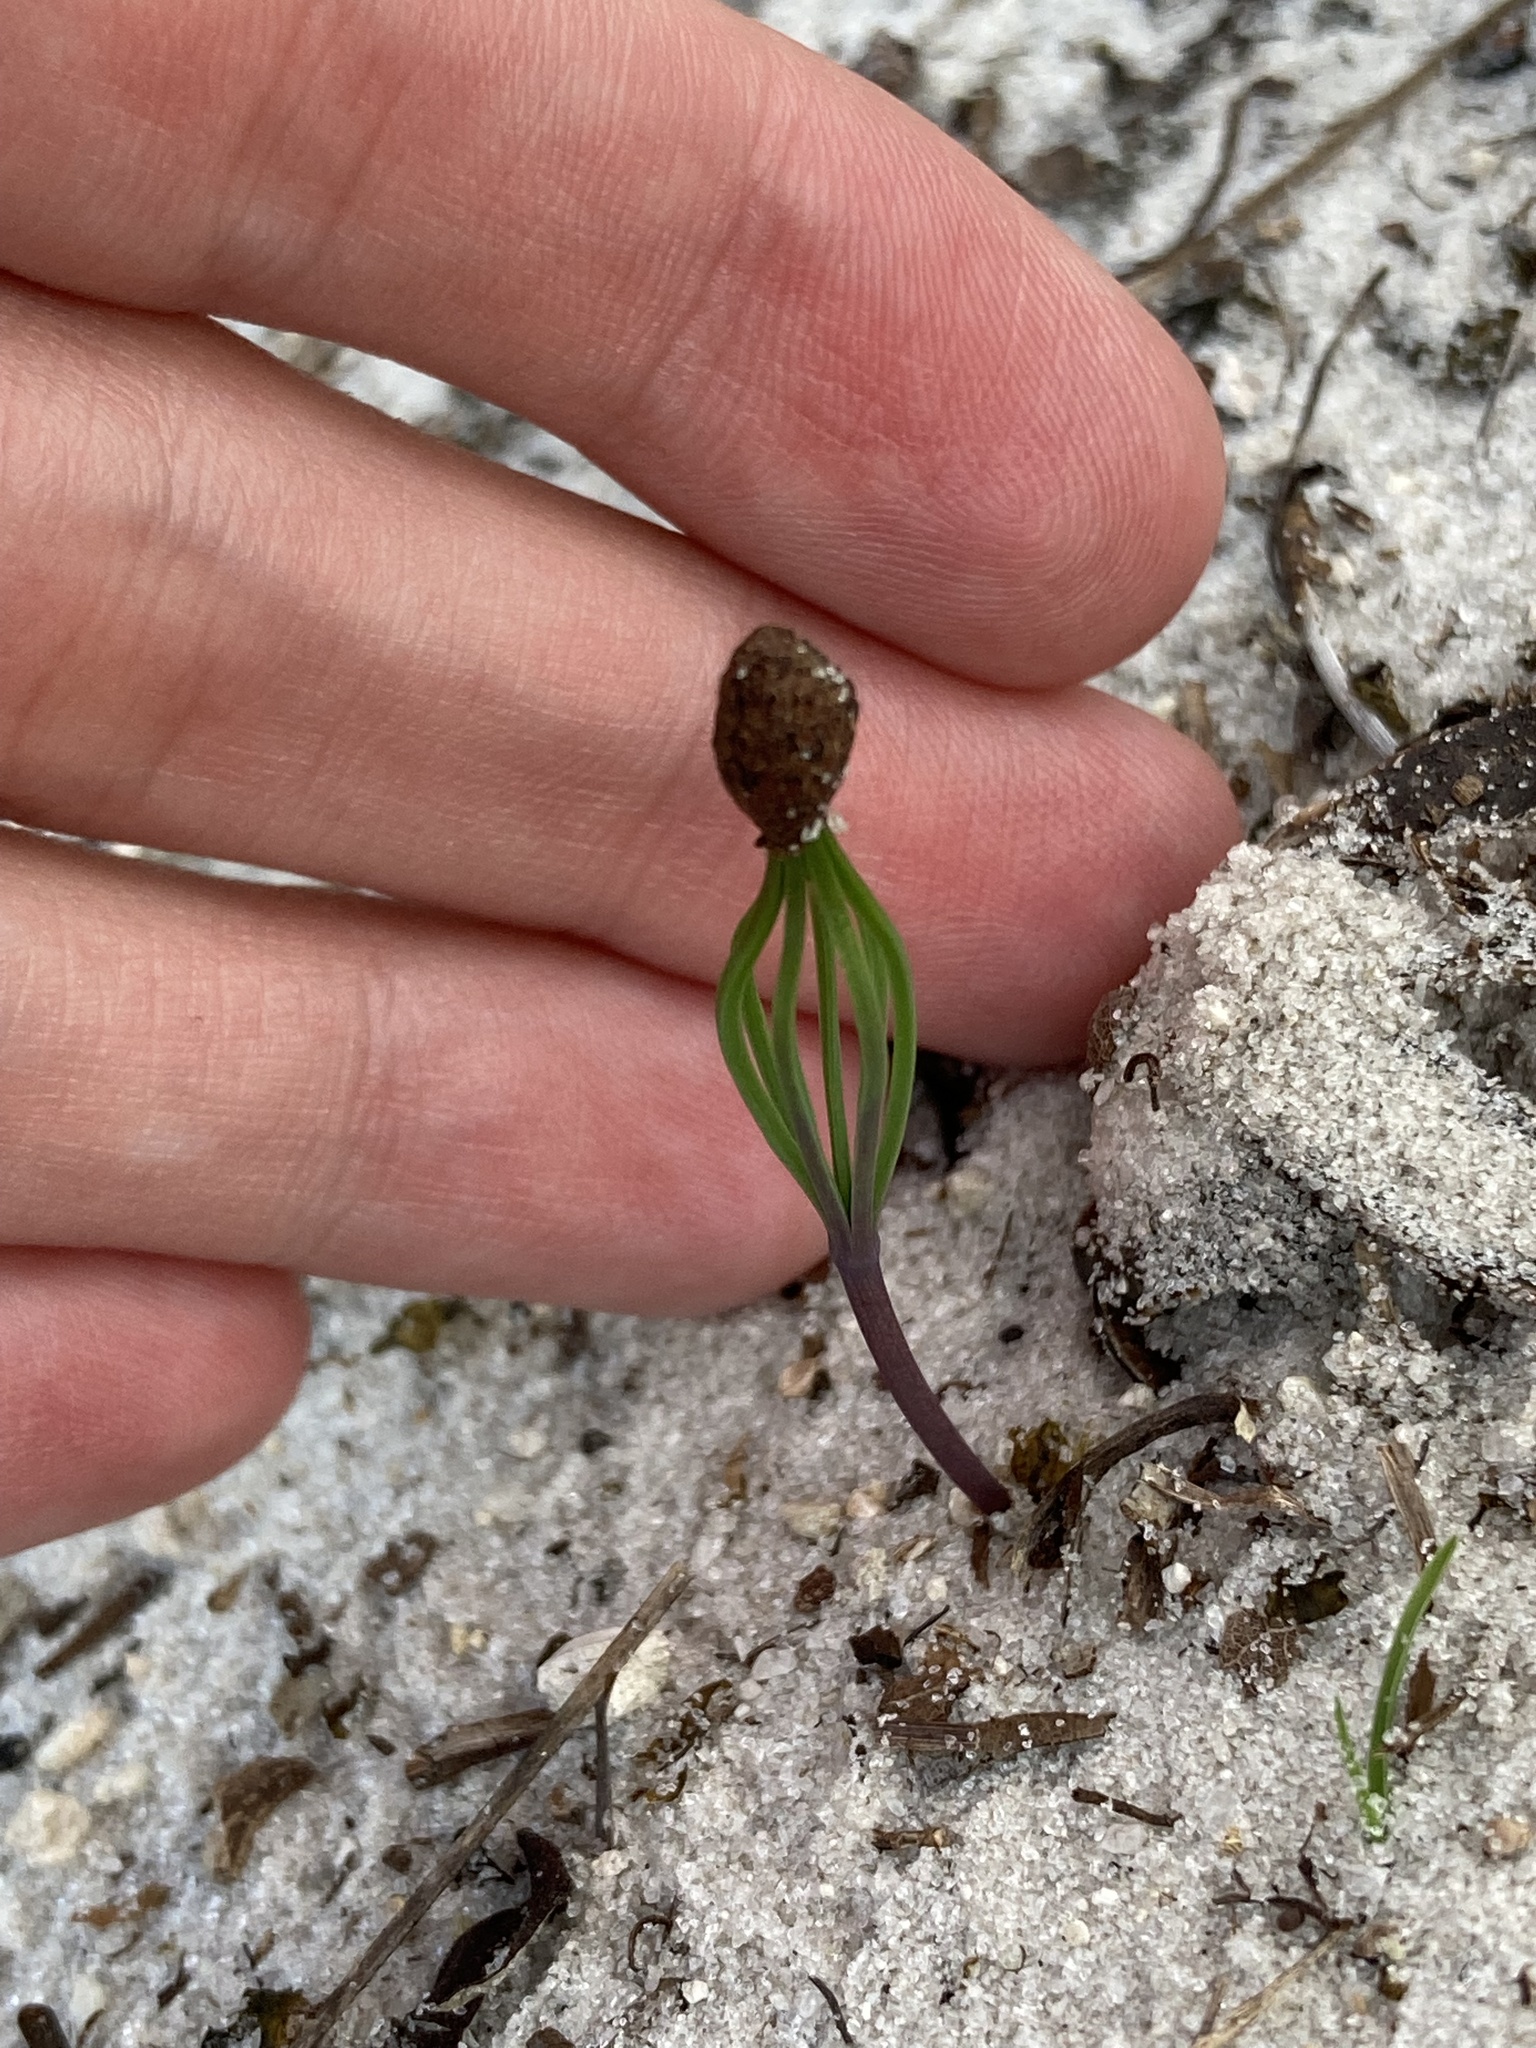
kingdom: Plantae
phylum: Tracheophyta
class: Pinopsida
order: Pinales
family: Pinaceae
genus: Pinus
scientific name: Pinus elliottii
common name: Slash pine
